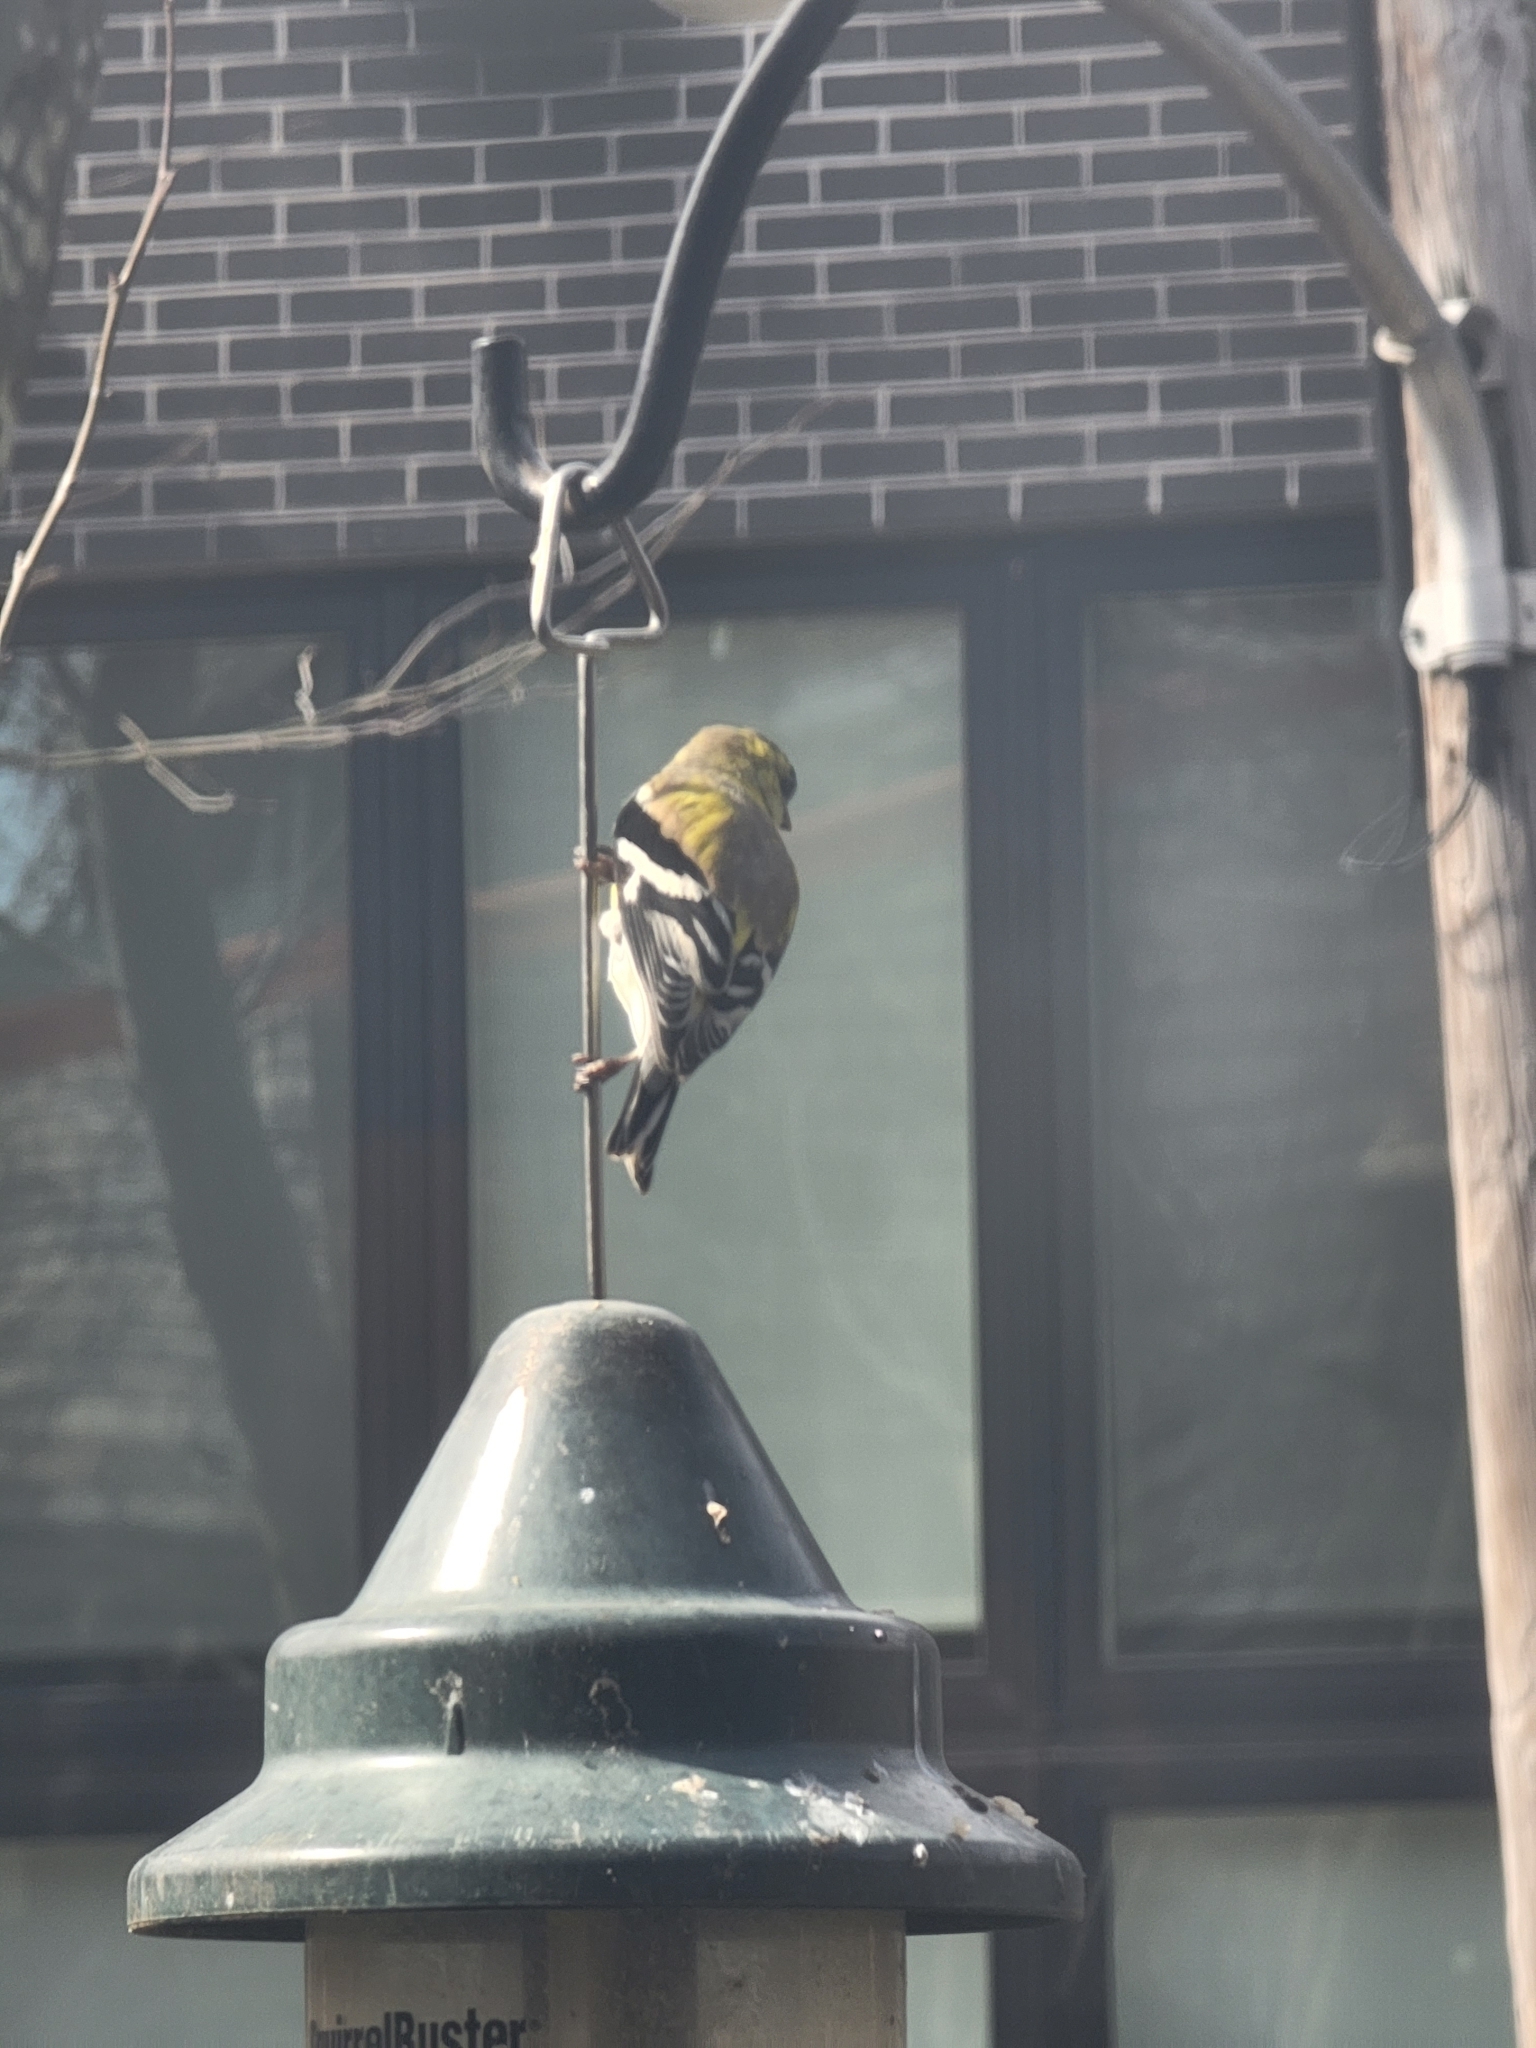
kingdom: Animalia
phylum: Chordata
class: Aves
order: Passeriformes
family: Fringillidae
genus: Spinus
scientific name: Spinus tristis
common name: American goldfinch
